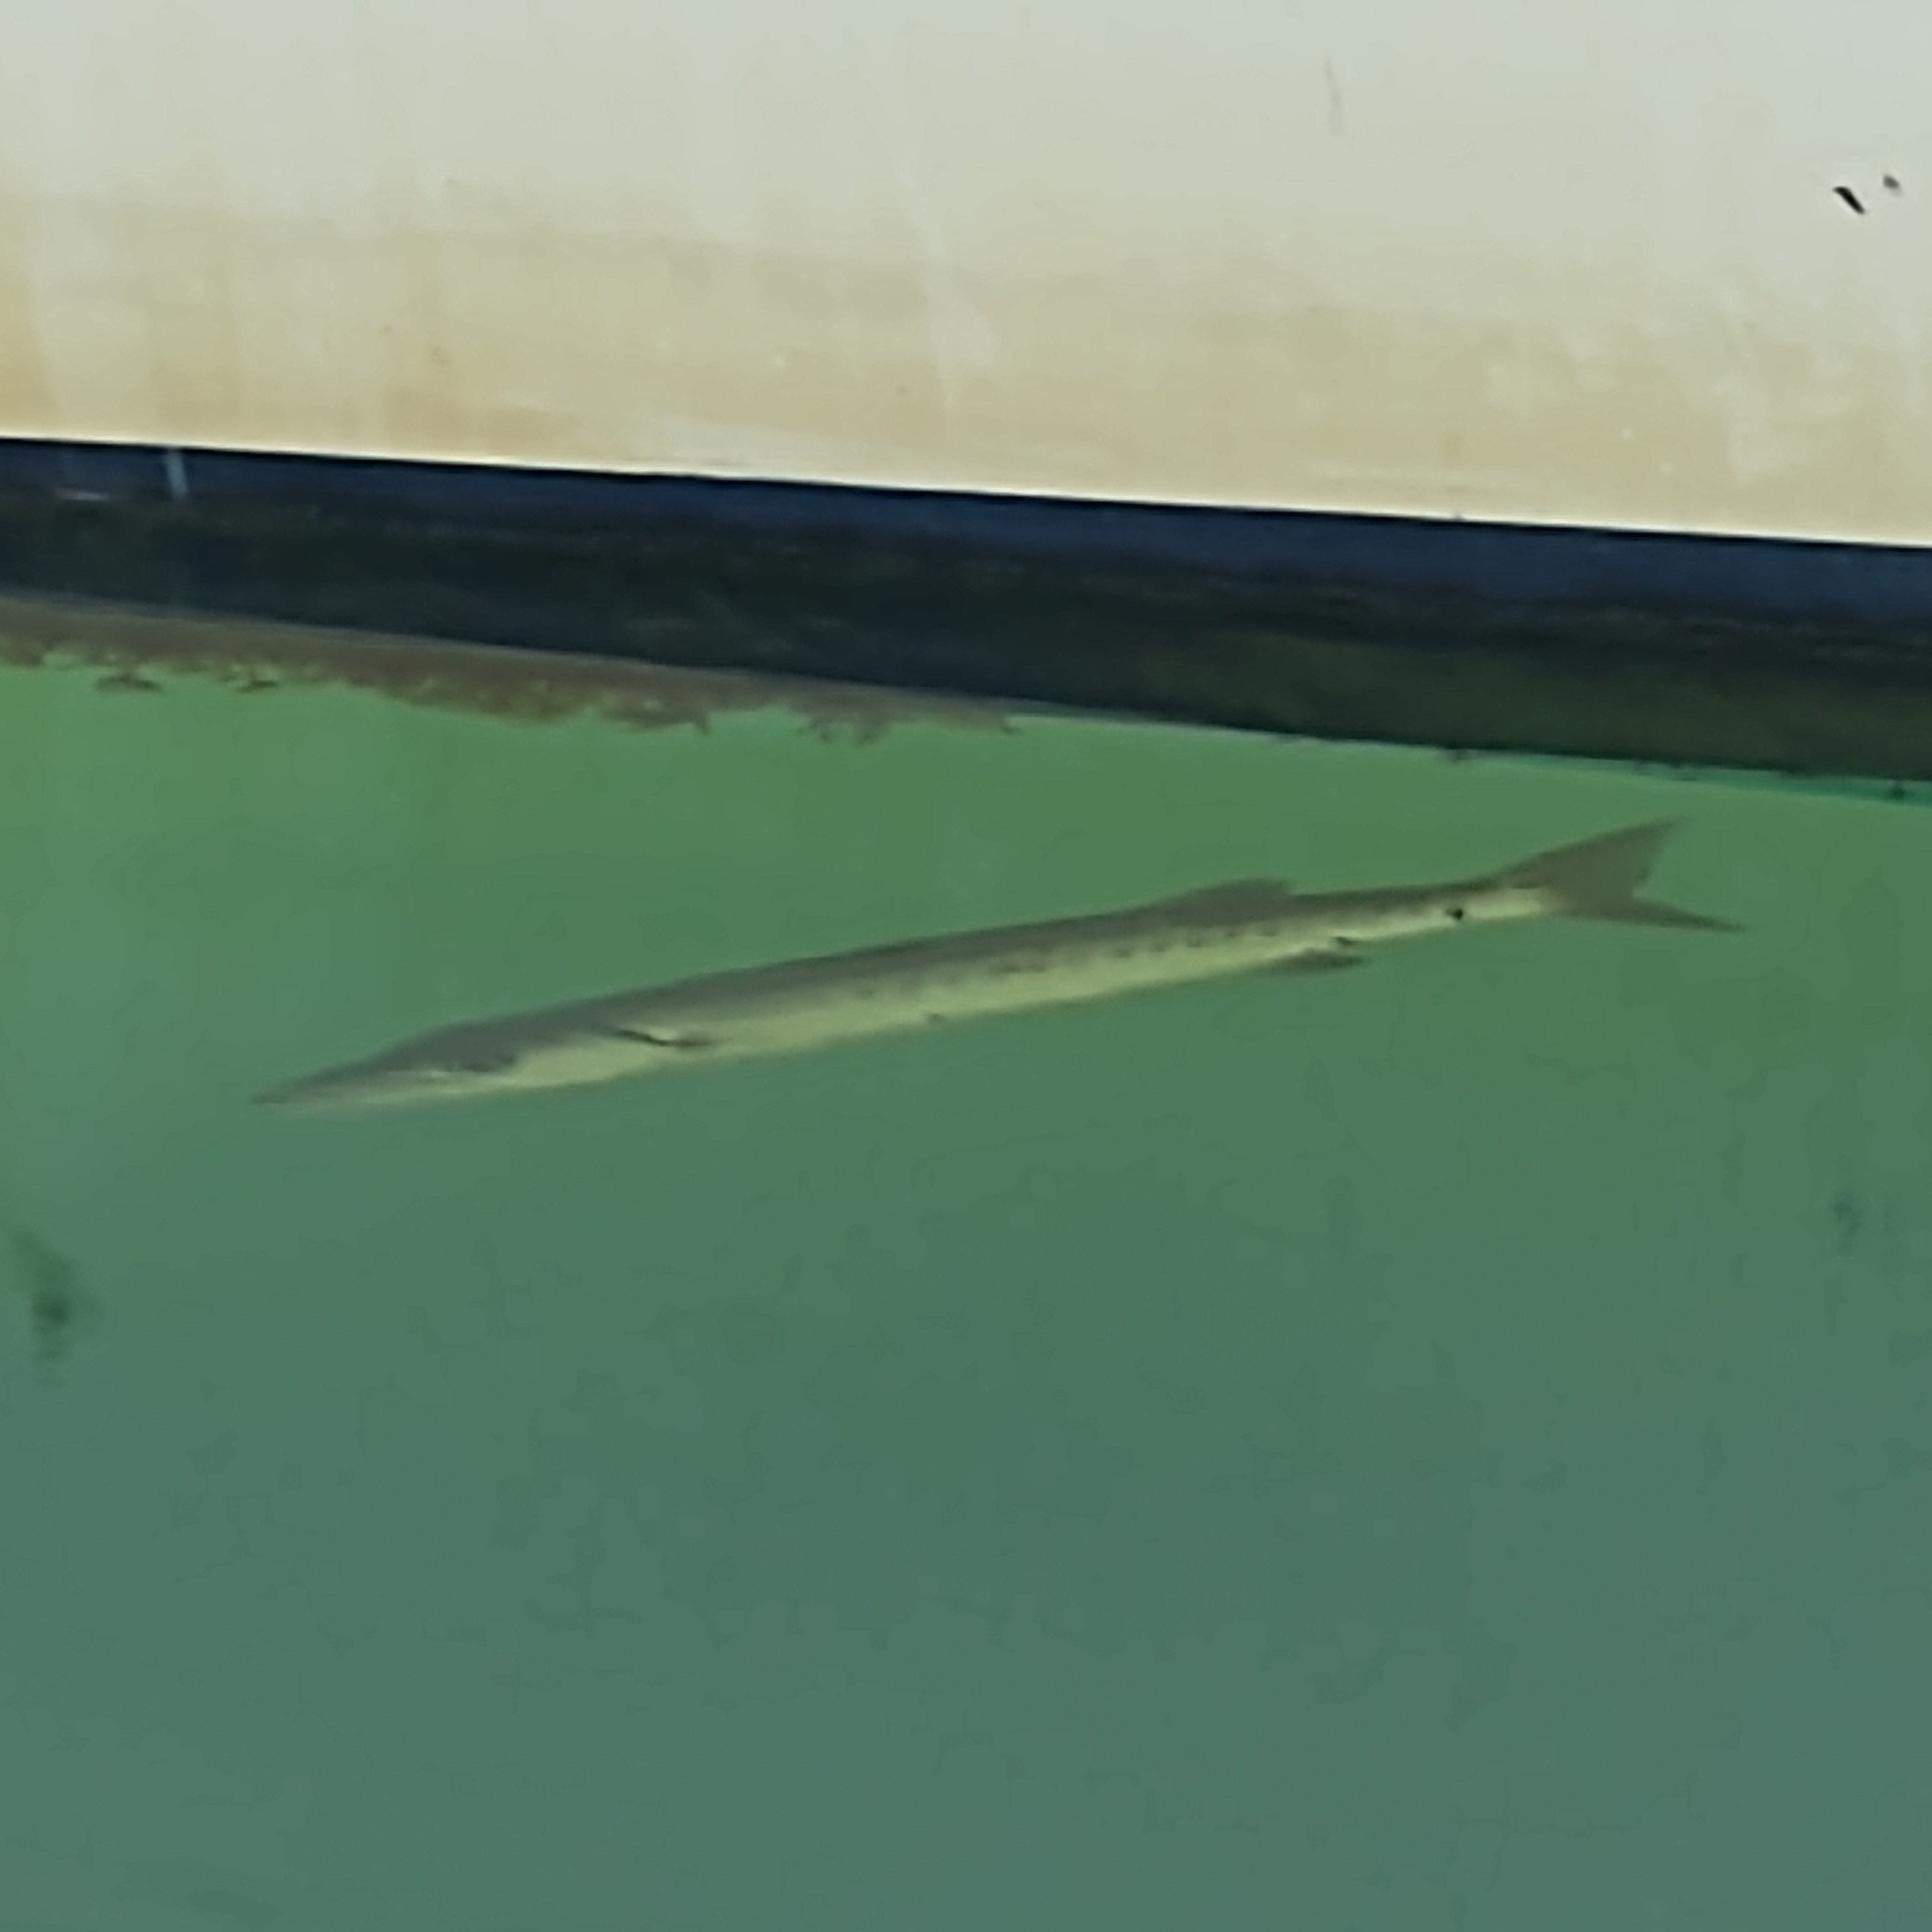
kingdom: Animalia
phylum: Chordata
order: Perciformes
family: Sphyraenidae
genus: Sphyraena
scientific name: Sphyraena barracuda
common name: Great barracuda
